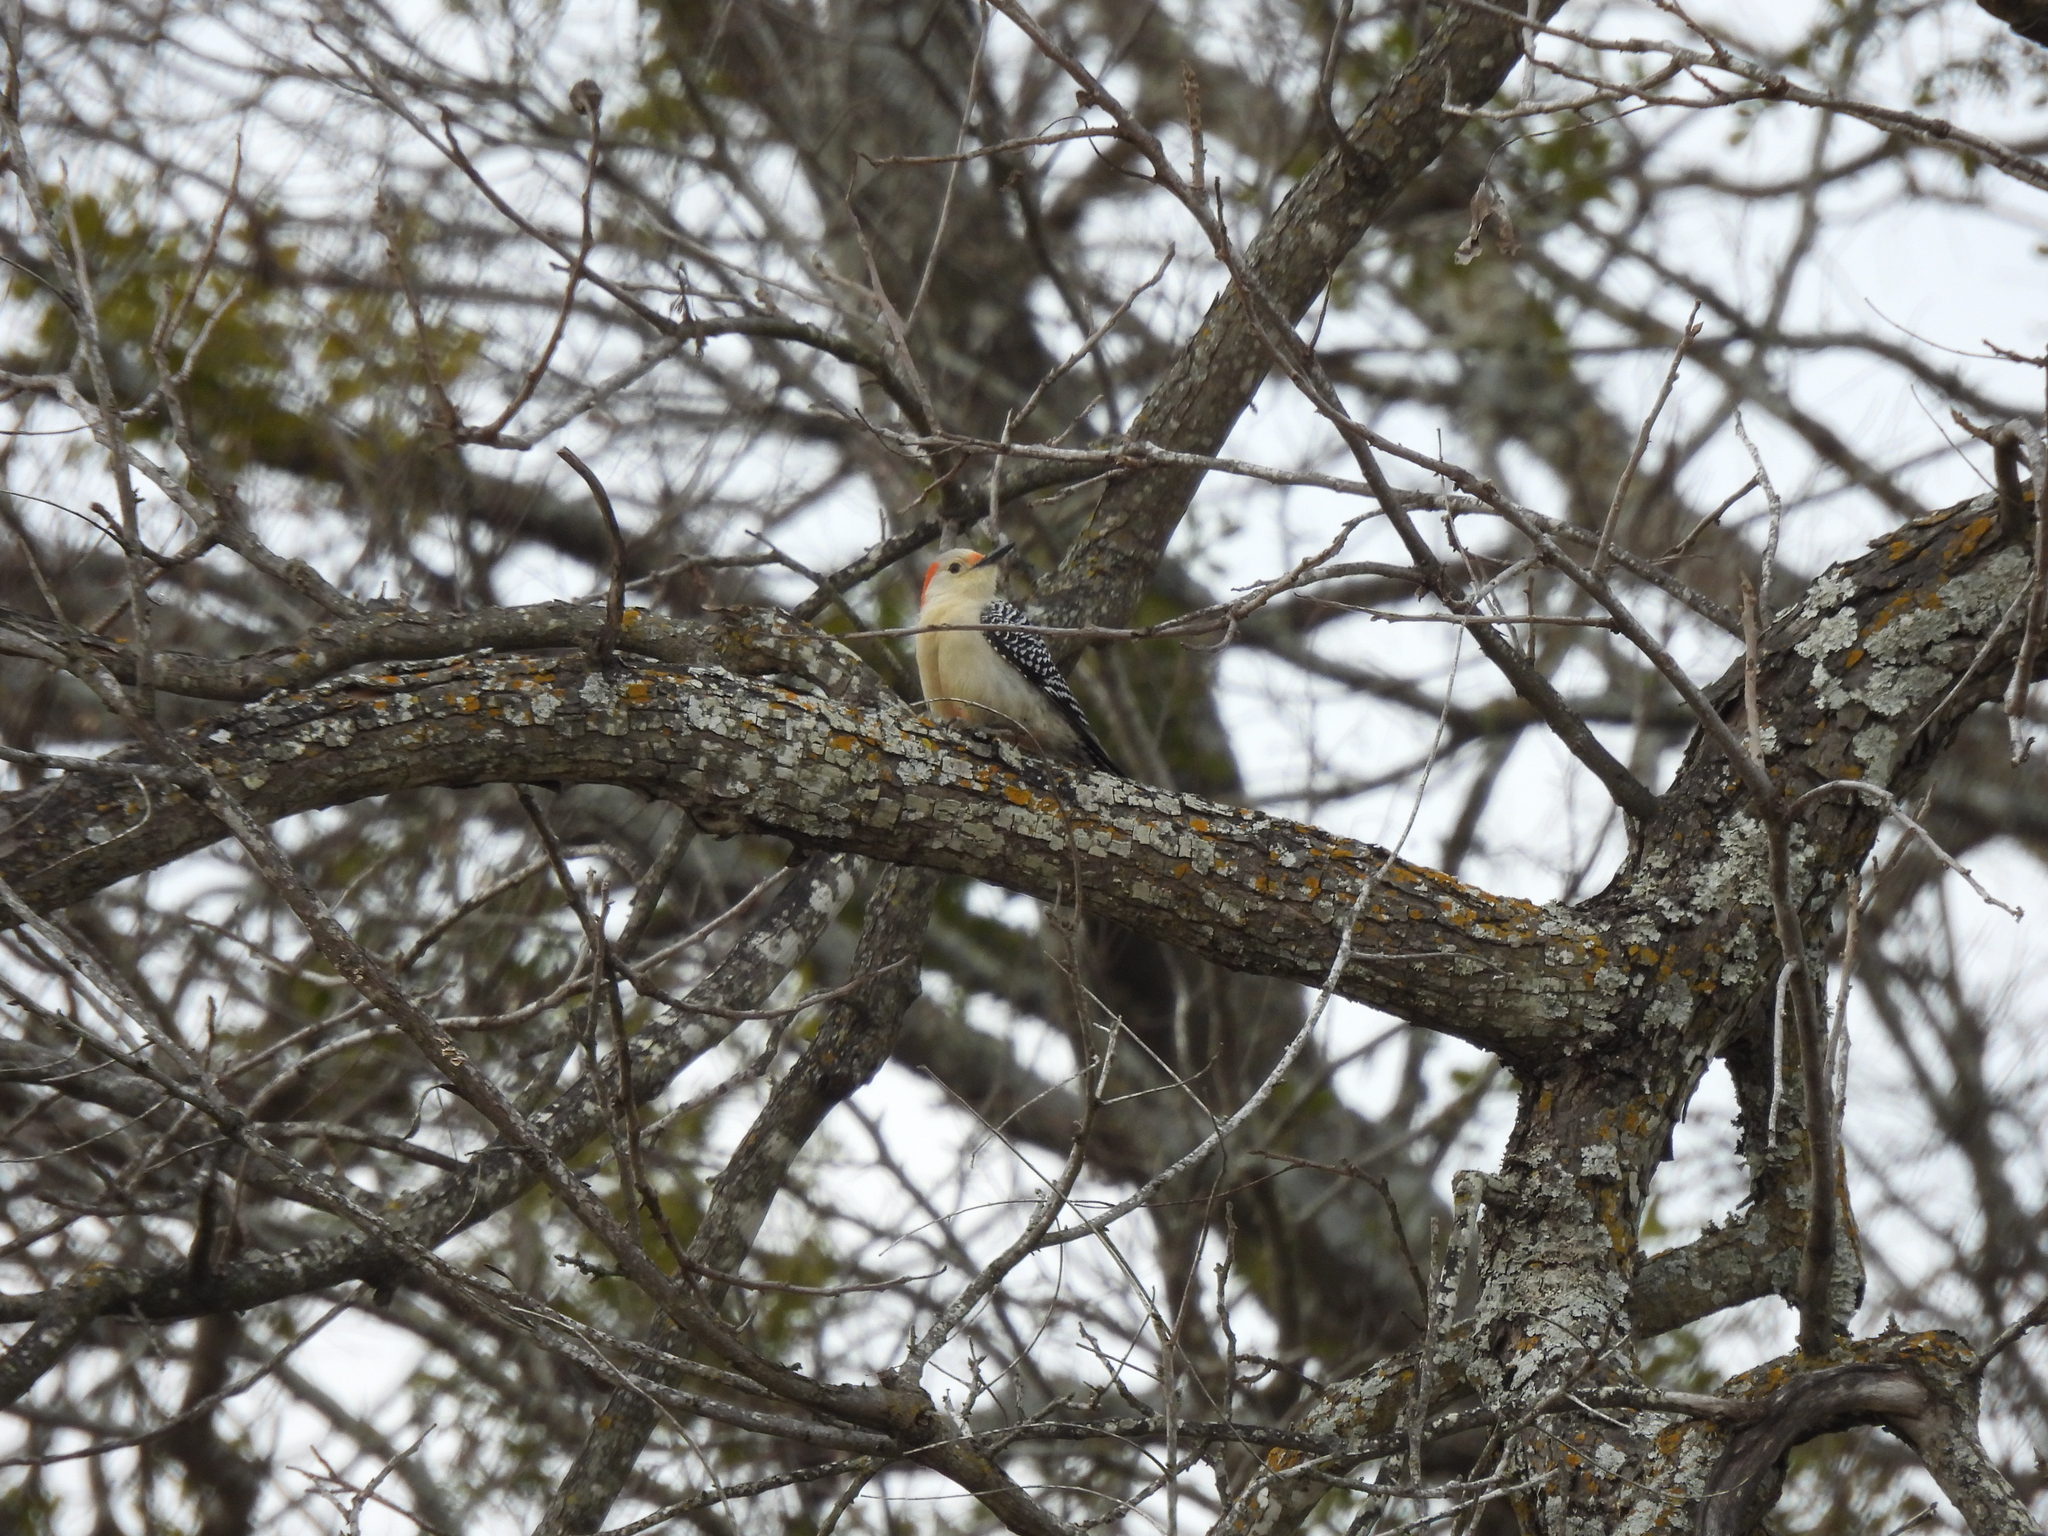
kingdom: Animalia
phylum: Chordata
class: Aves
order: Piciformes
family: Picidae
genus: Melanerpes
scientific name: Melanerpes carolinus
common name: Red-bellied woodpecker
